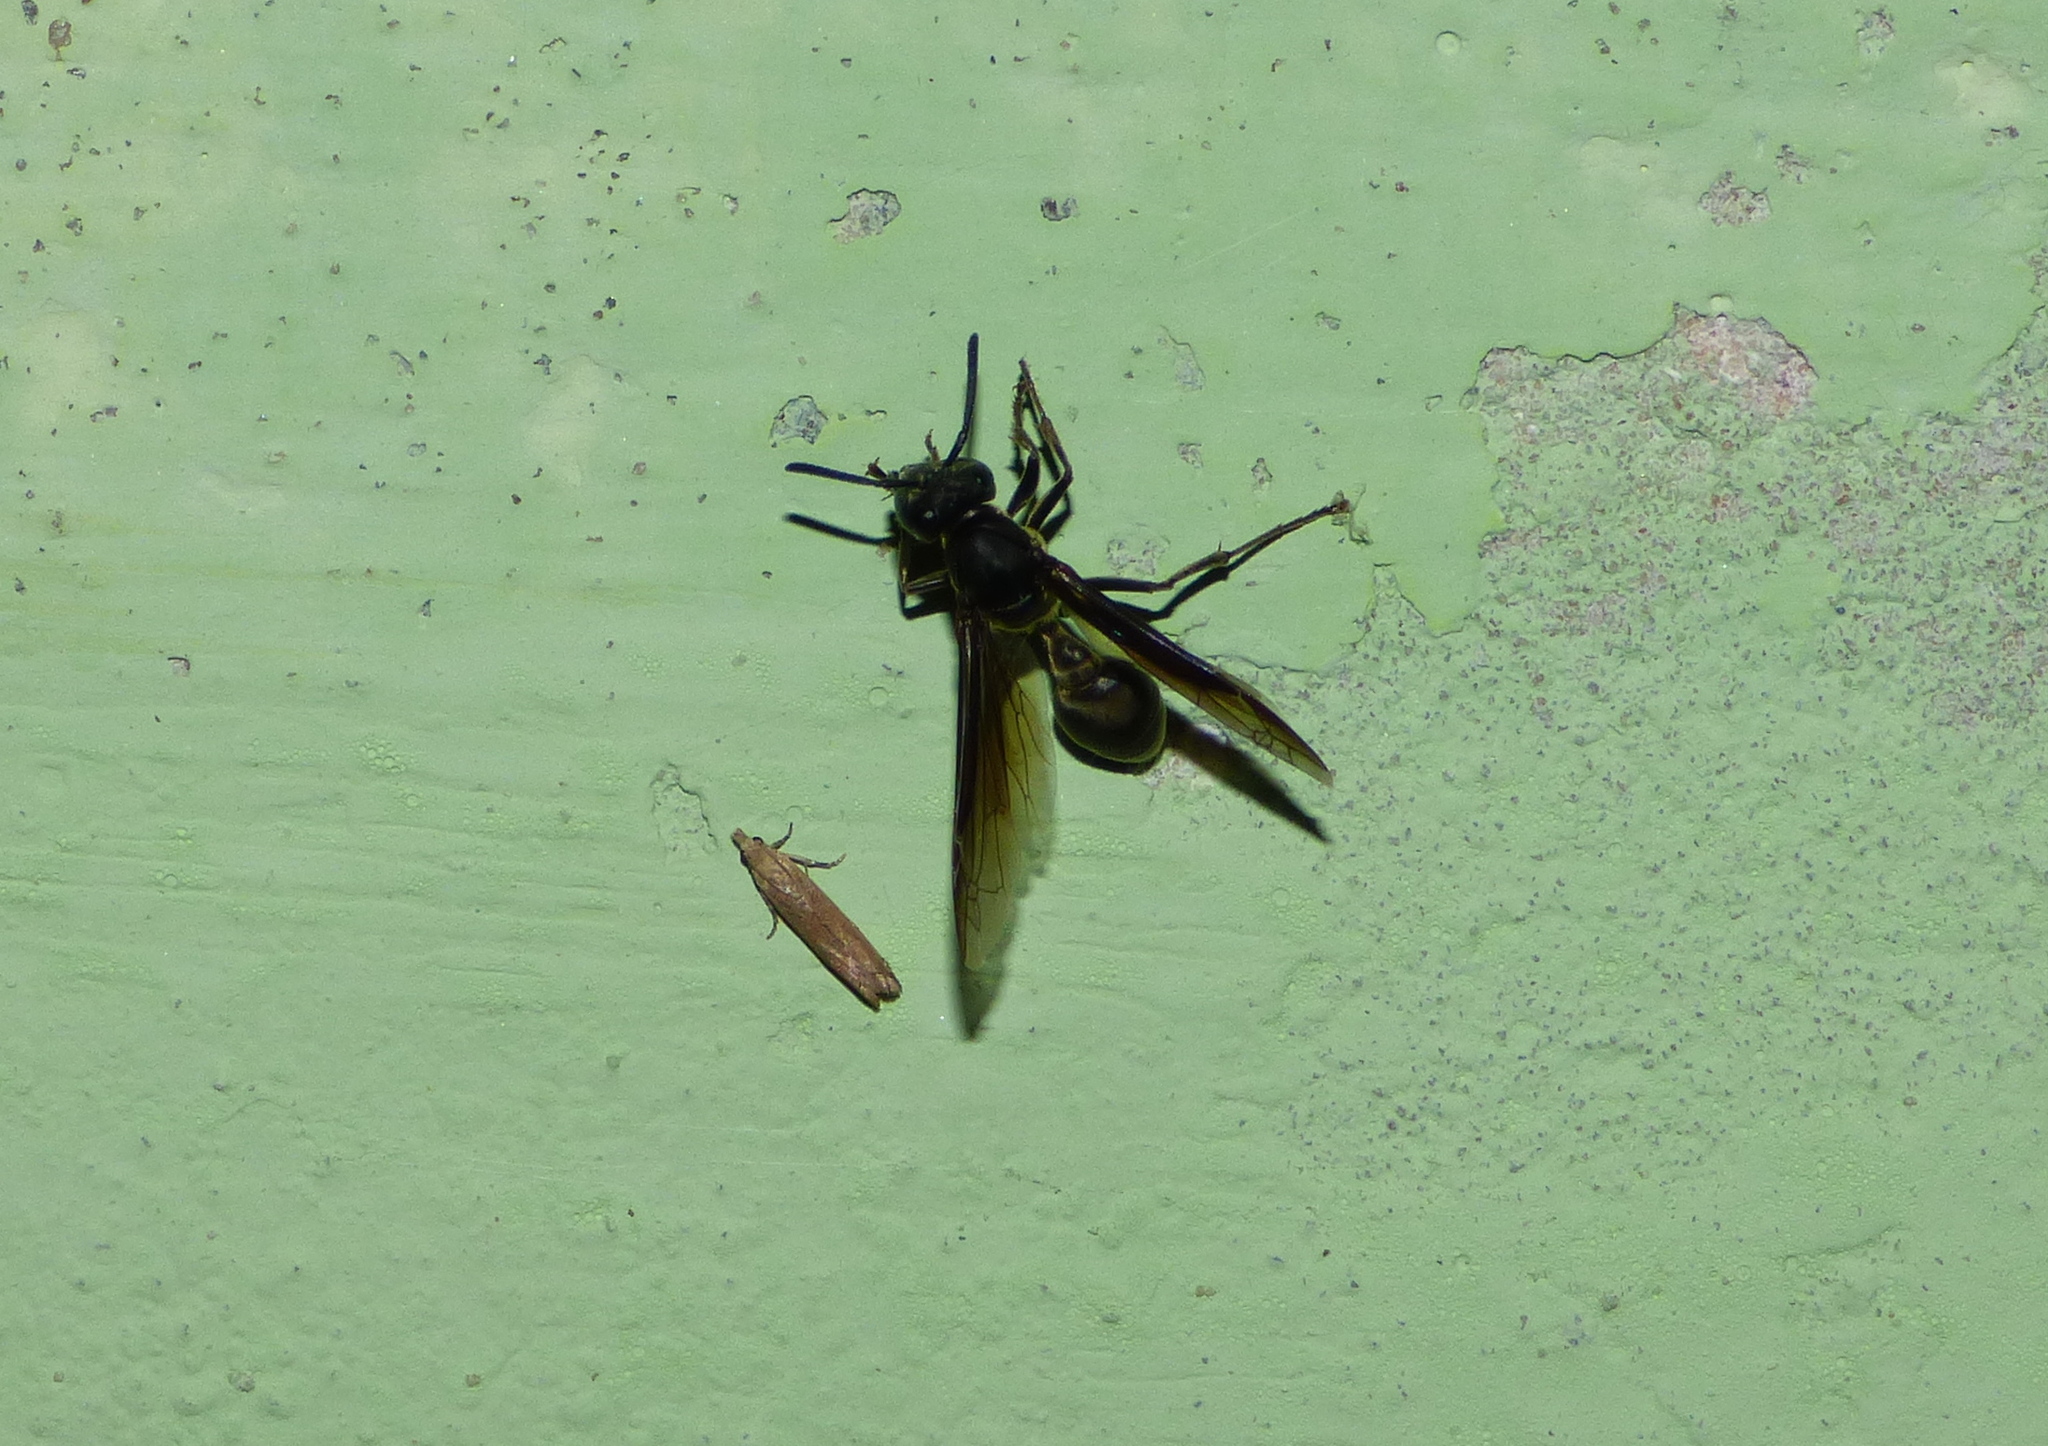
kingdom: Animalia
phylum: Arthropoda
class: Insecta
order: Hymenoptera
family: Eumenidae
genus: Polybia
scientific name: Polybia ignobilis
